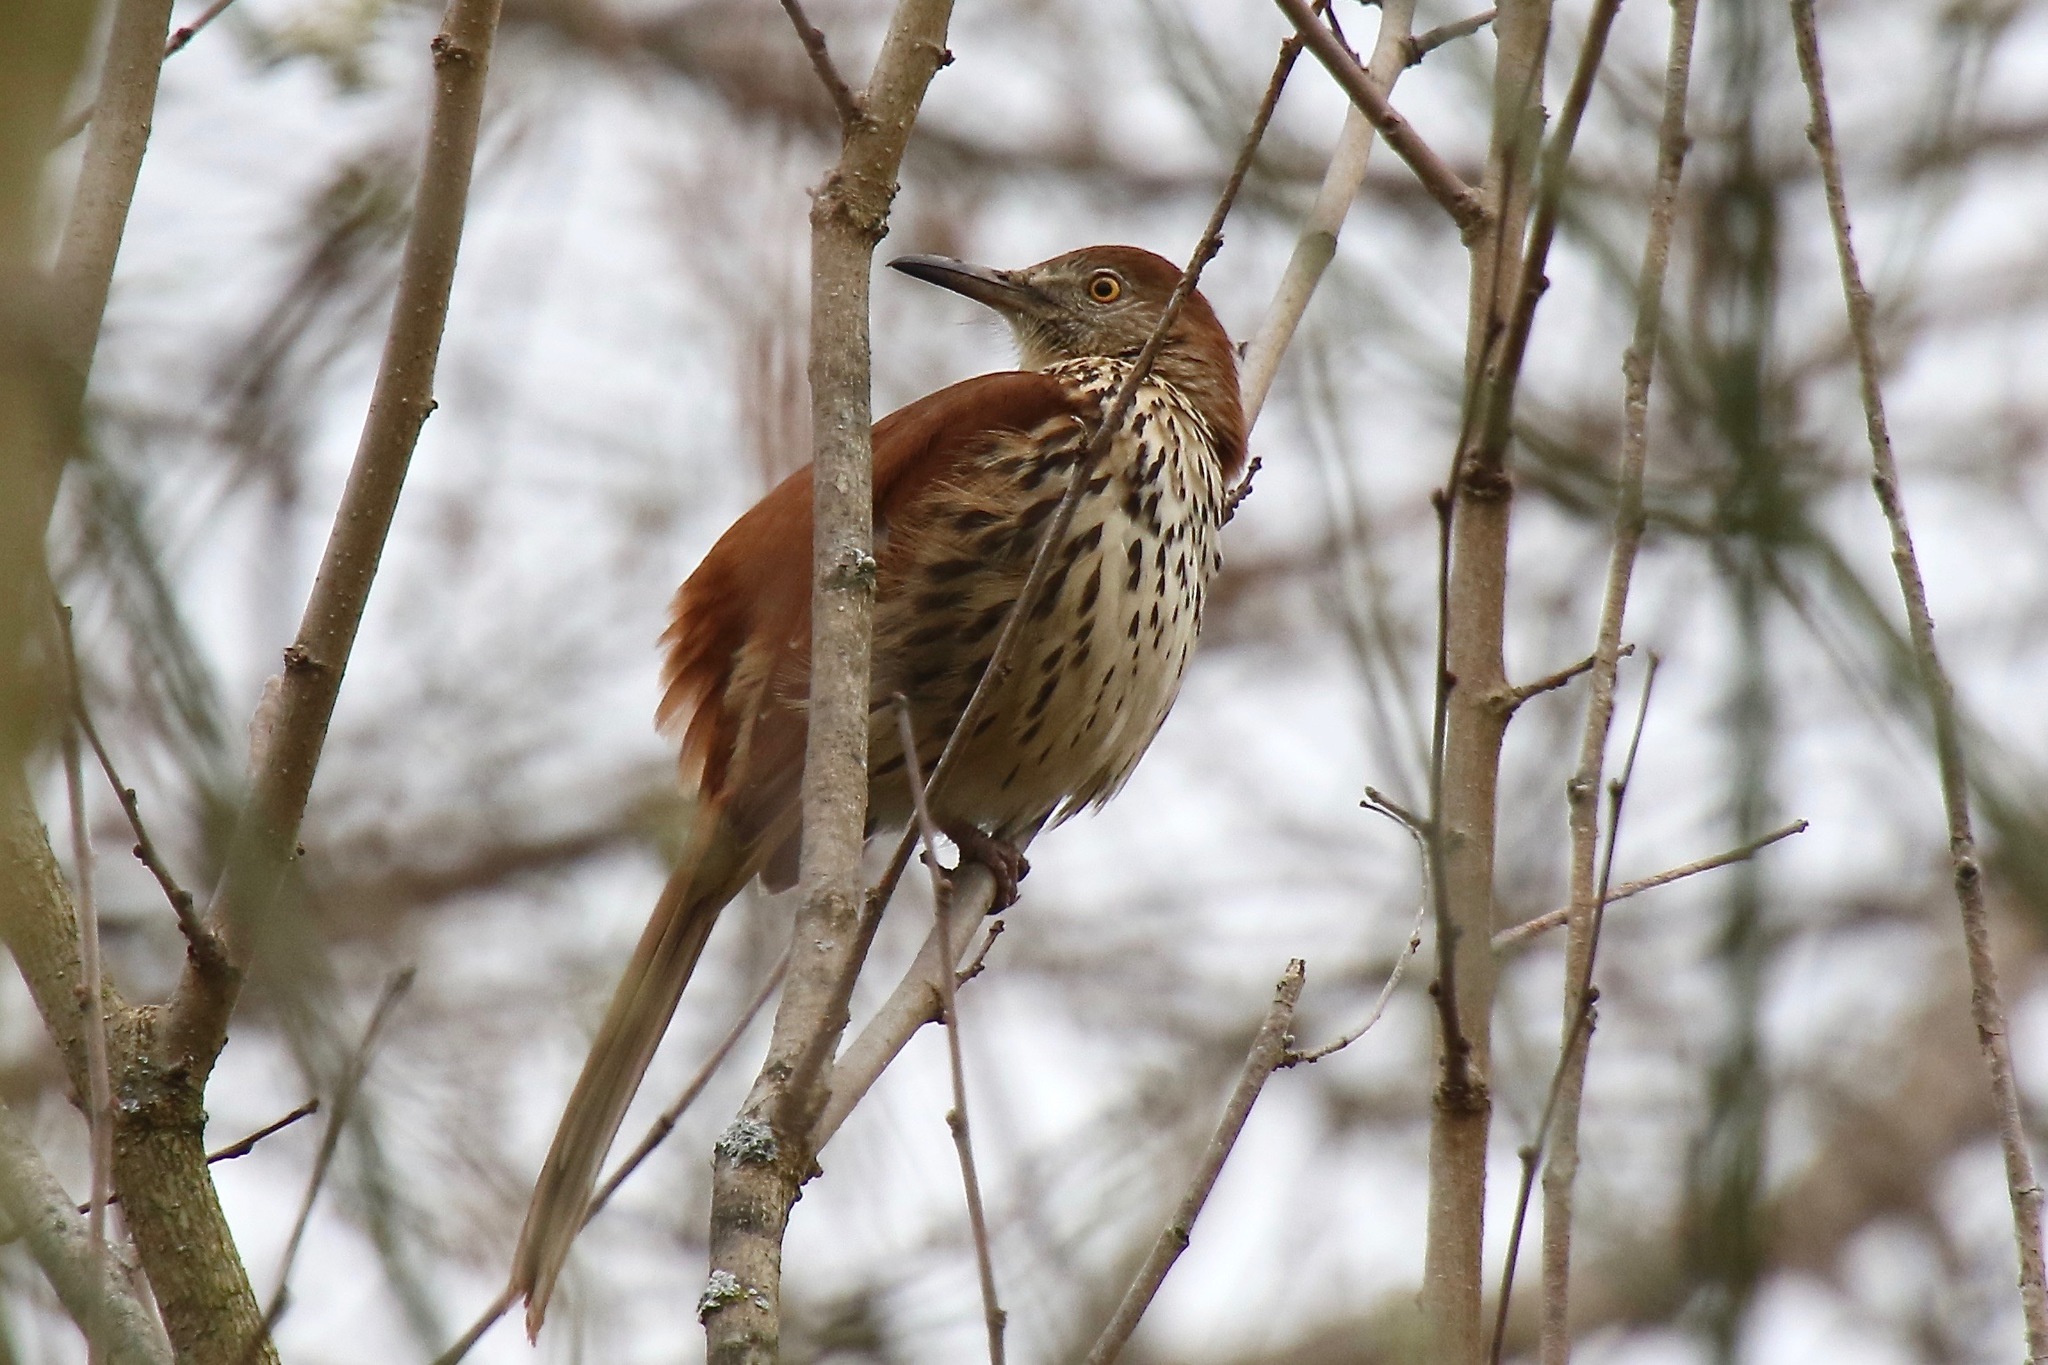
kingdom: Animalia
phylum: Chordata
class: Aves
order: Passeriformes
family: Mimidae
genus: Toxostoma
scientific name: Toxostoma rufum
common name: Brown thrasher
